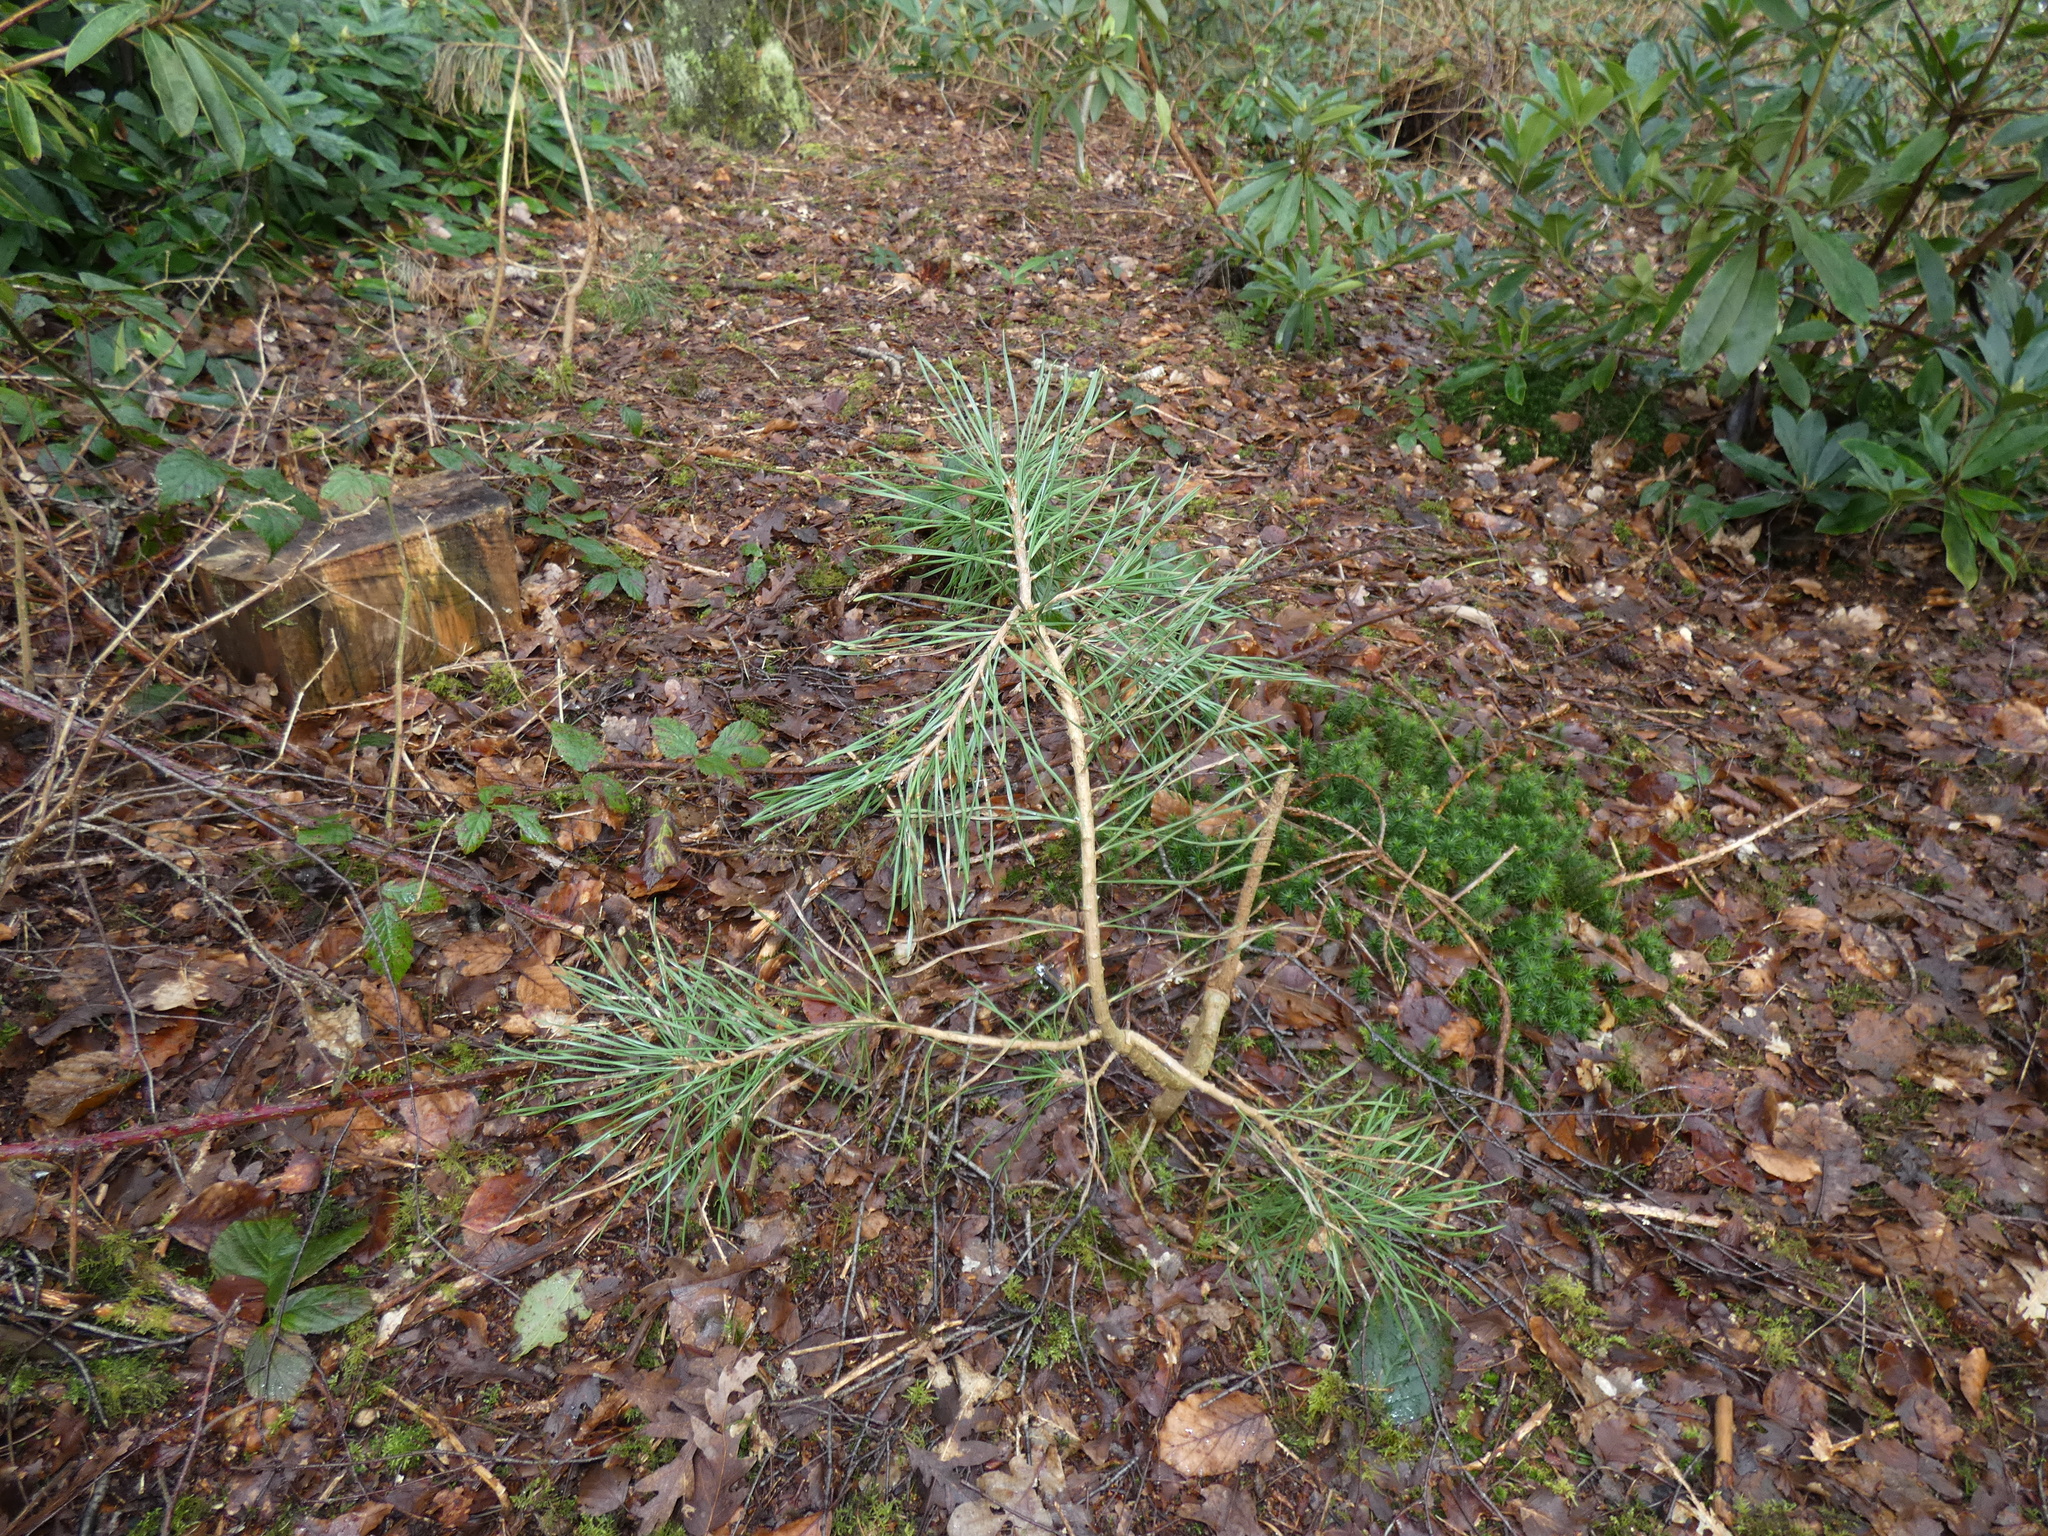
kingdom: Plantae
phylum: Tracheophyta
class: Pinopsida
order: Pinales
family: Pinaceae
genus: Pinus
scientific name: Pinus sylvestris
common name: Scots pine
